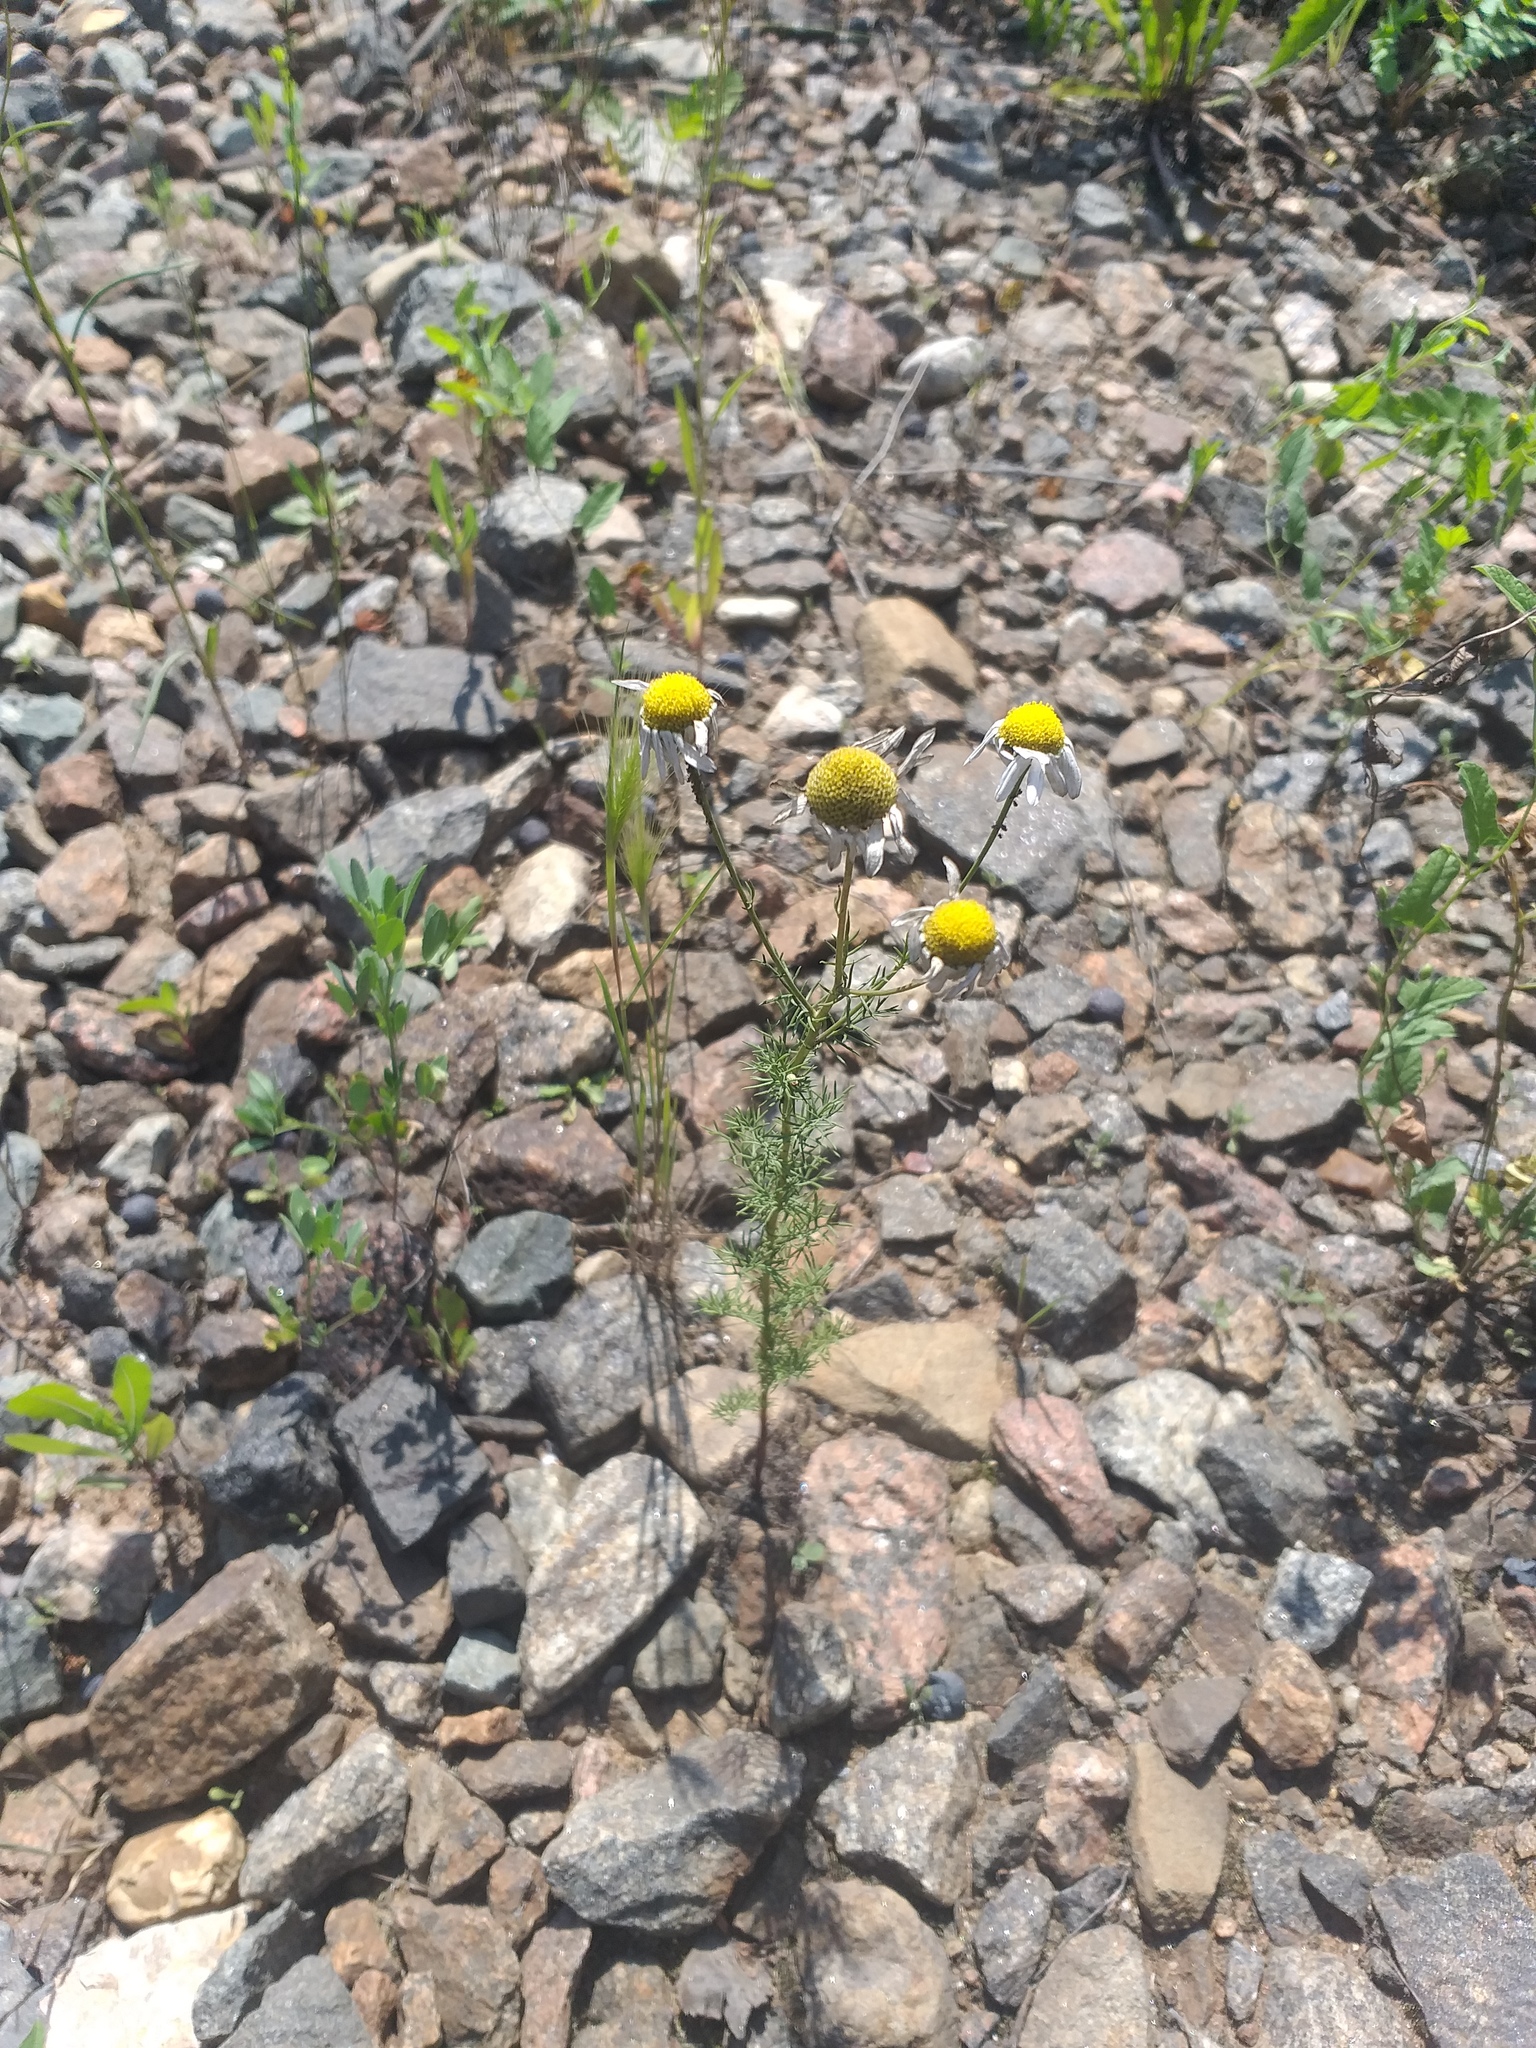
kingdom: Plantae
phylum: Tracheophyta
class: Magnoliopsida
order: Asterales
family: Asteraceae
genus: Tripleurospermum
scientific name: Tripleurospermum inodorum
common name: Scentless mayweed
